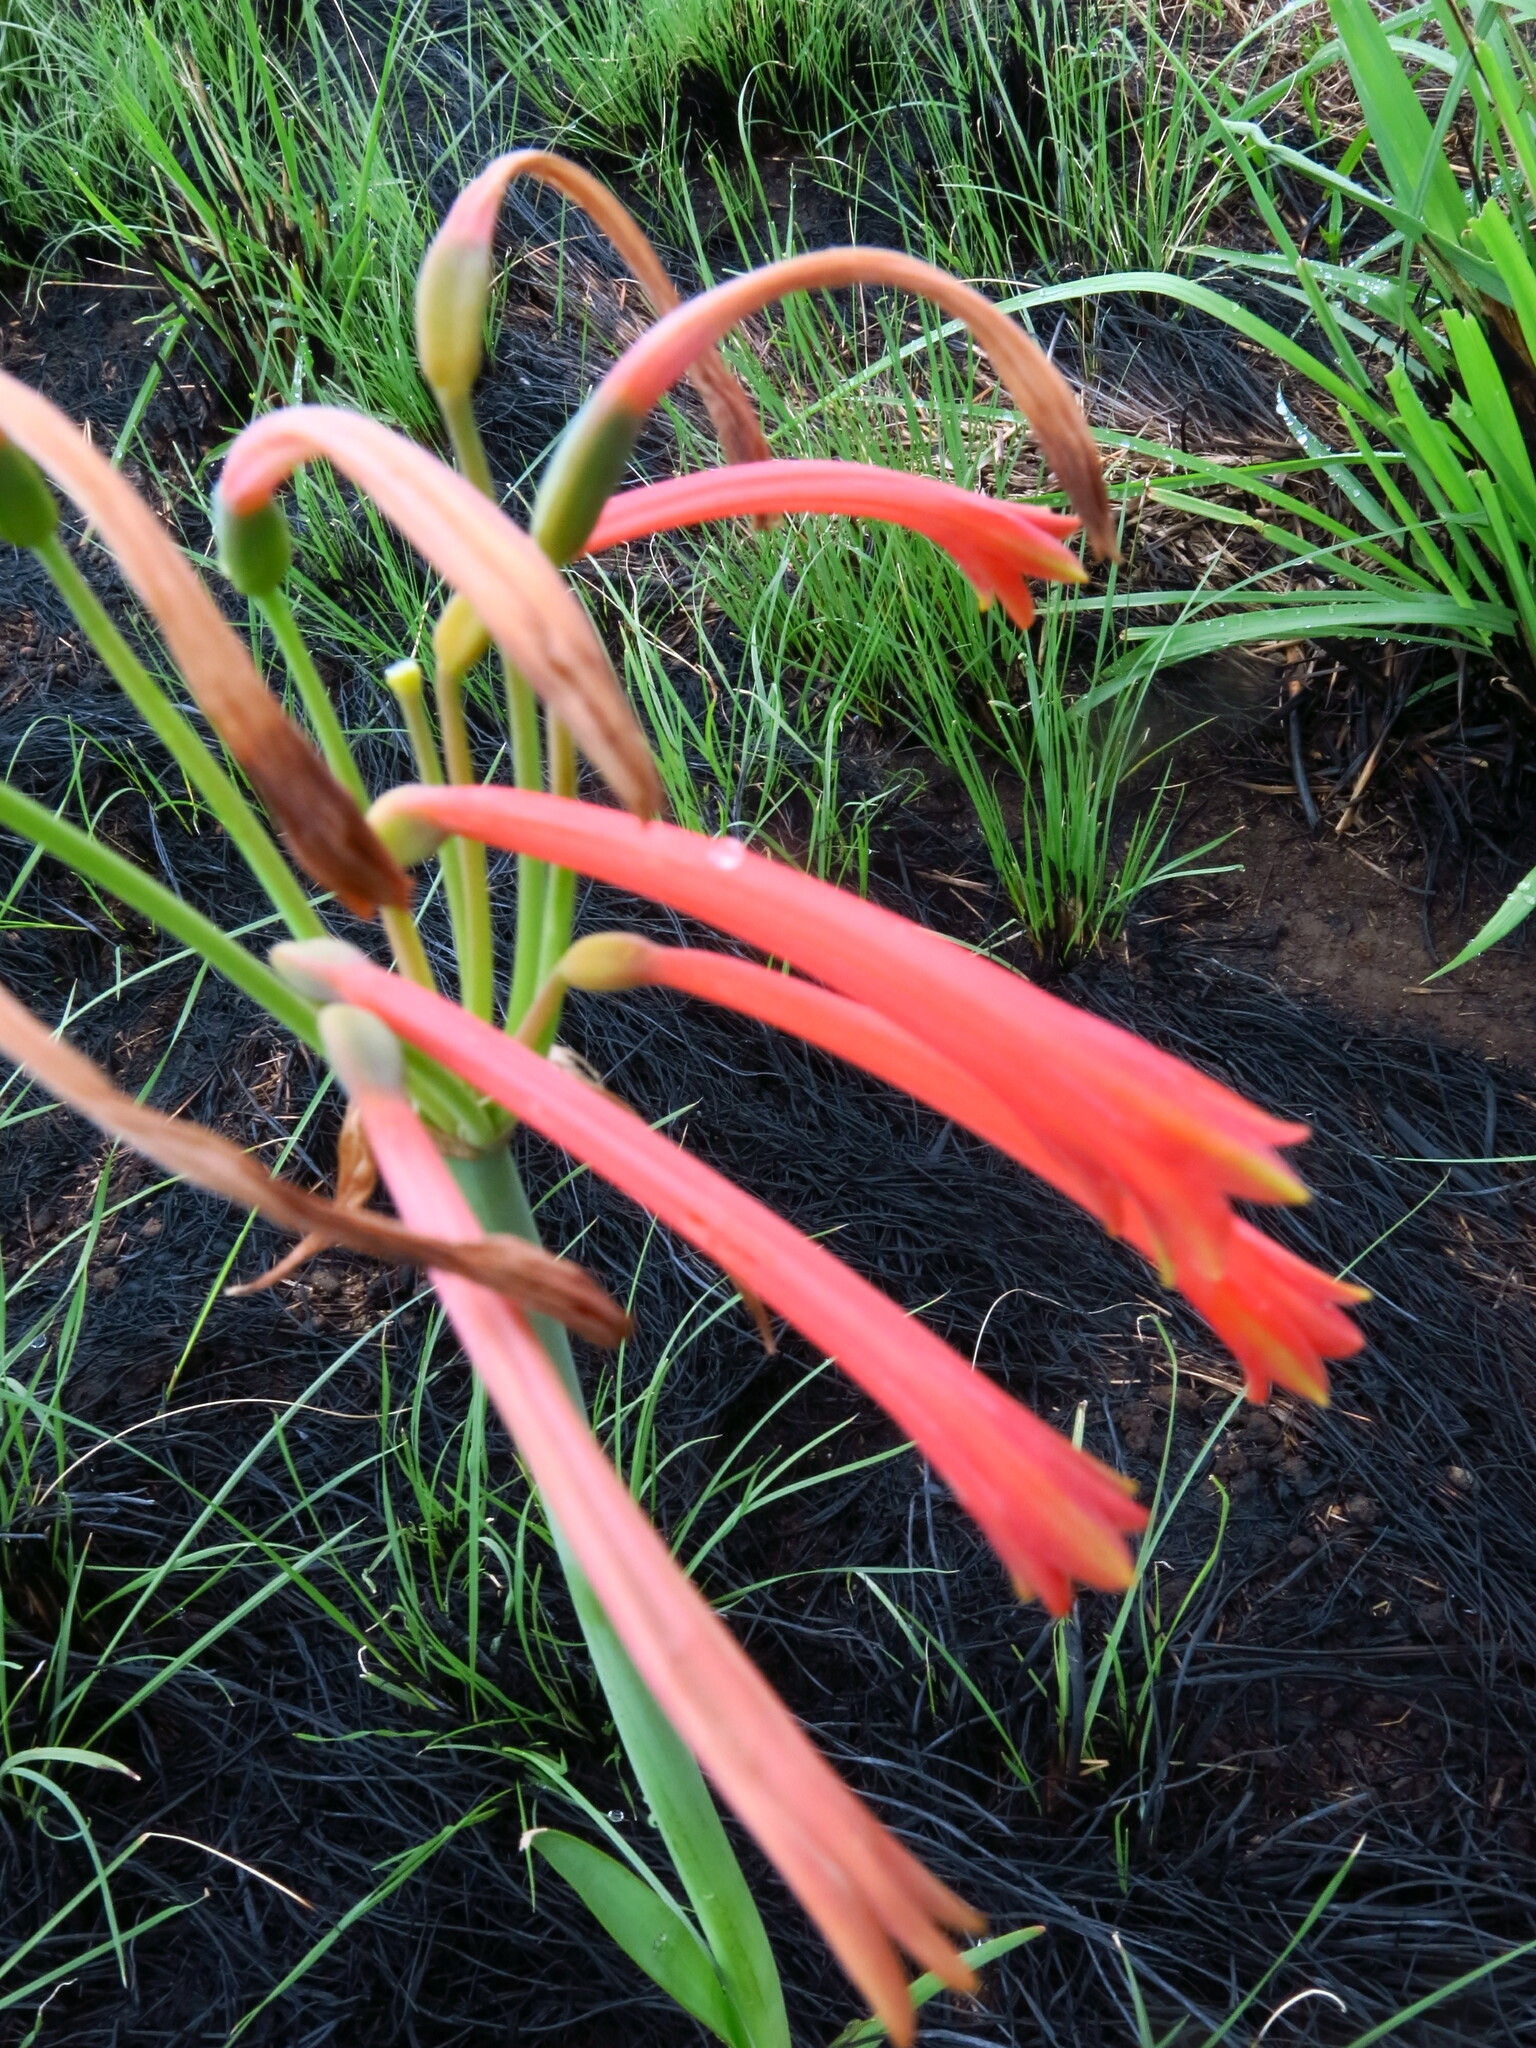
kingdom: Plantae
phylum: Tracheophyta
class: Liliopsida
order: Asparagales
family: Amaryllidaceae
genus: Cyrtanthus
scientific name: Cyrtanthus tuckii
